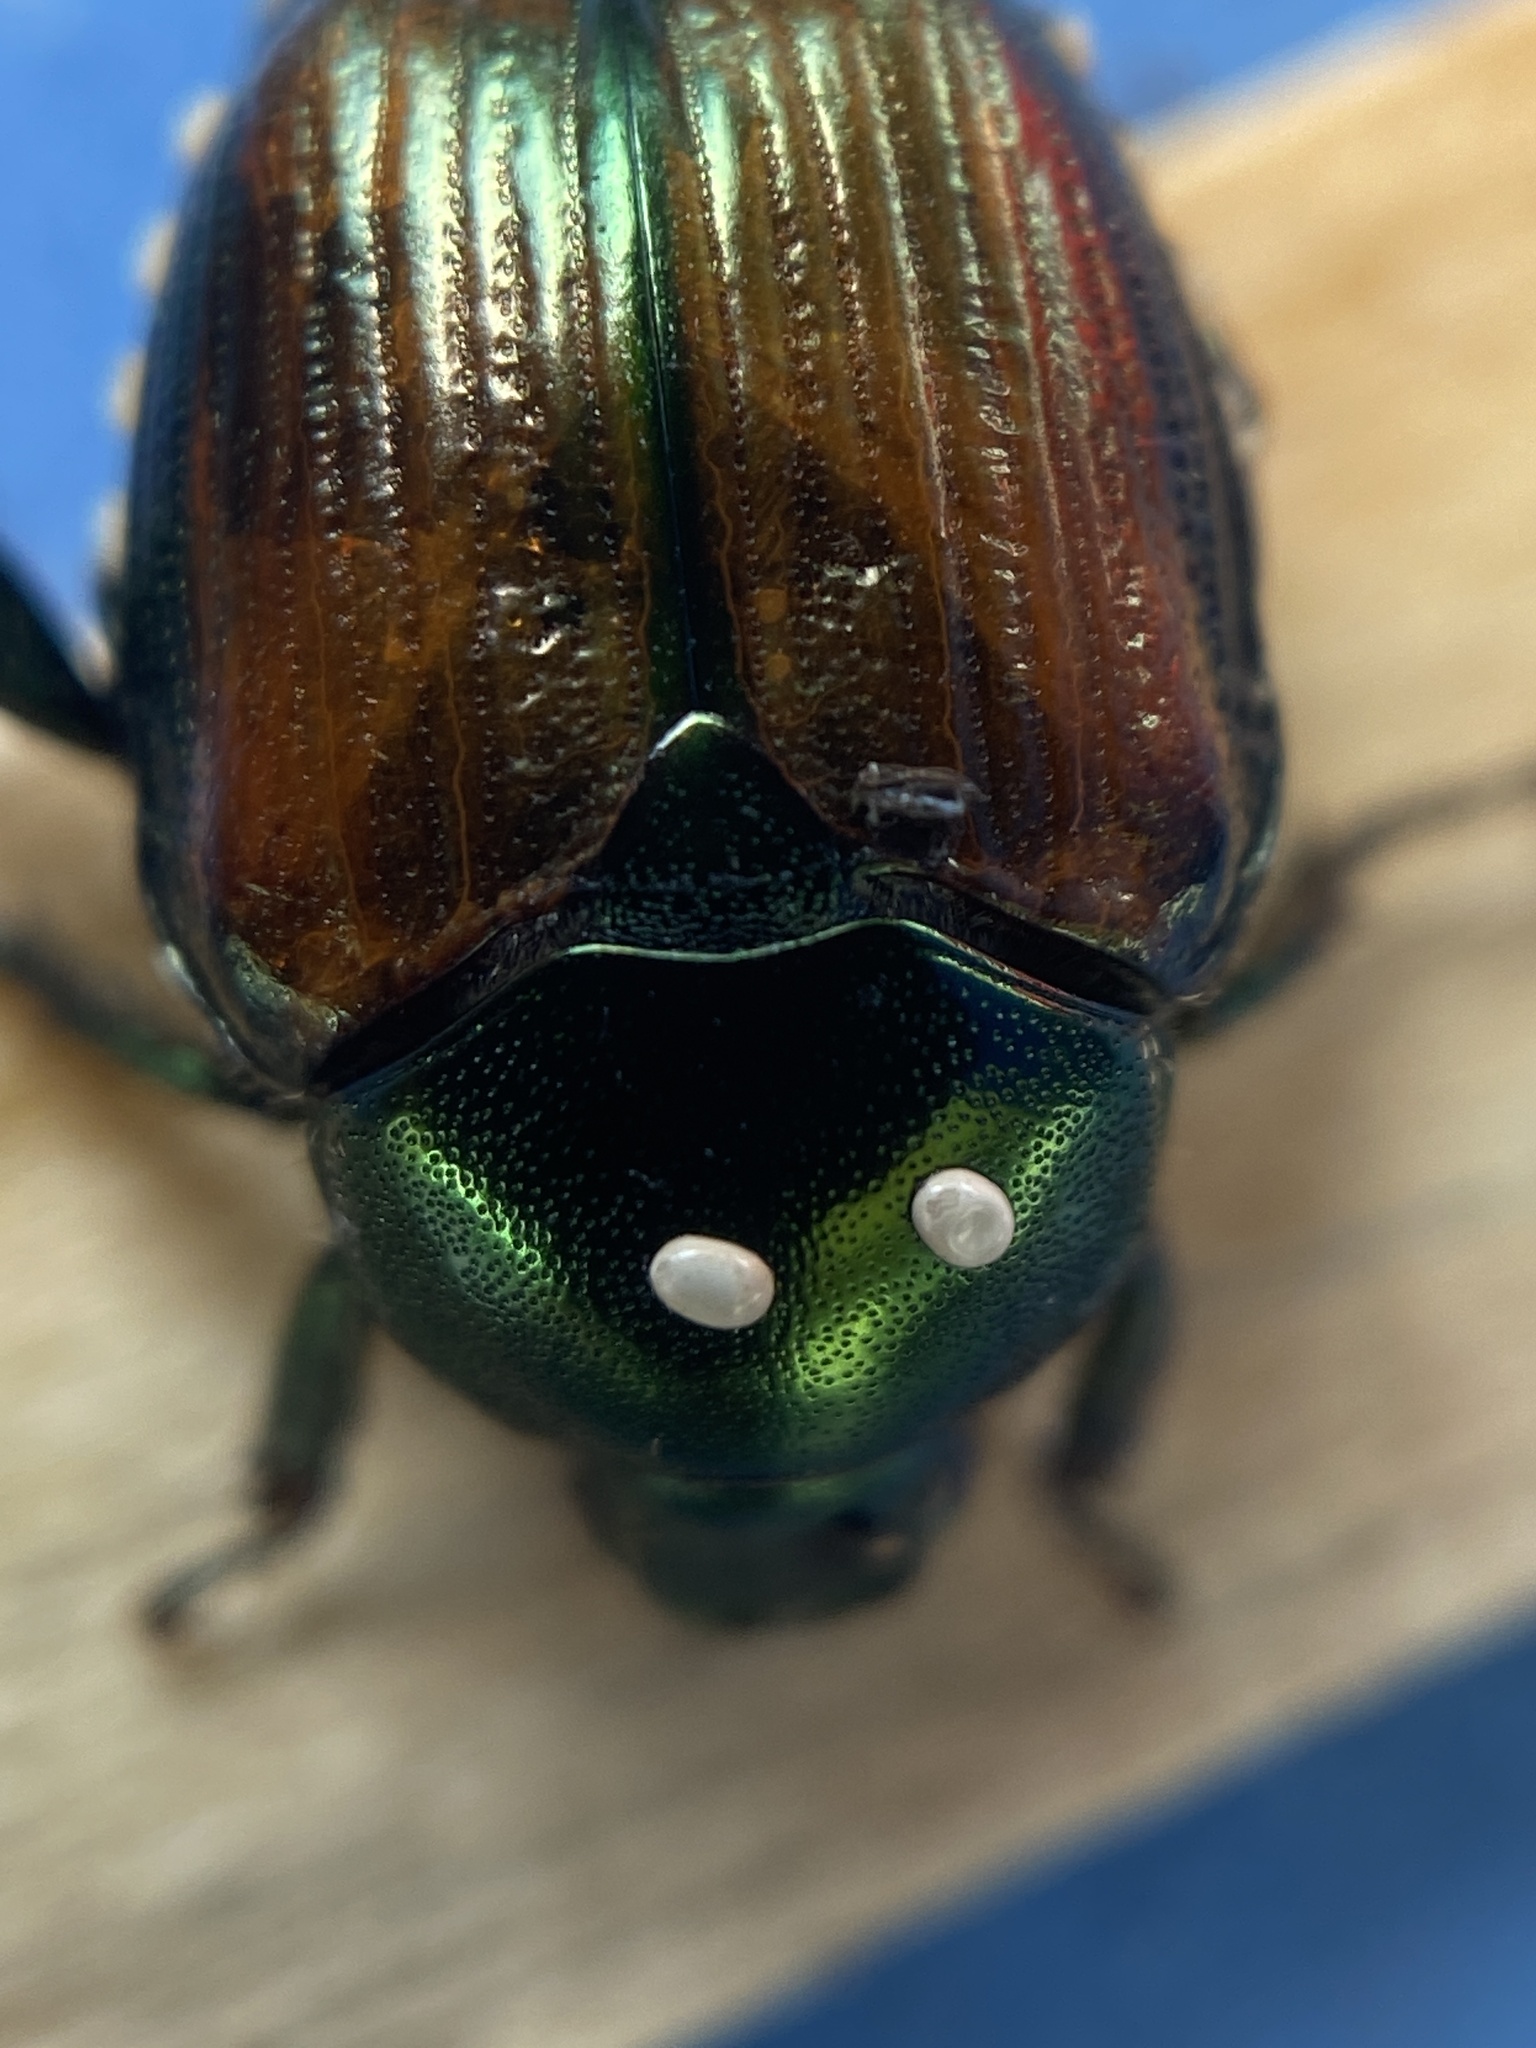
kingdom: Animalia
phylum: Arthropoda
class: Insecta
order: Diptera
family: Tachinidae
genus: Istocheta
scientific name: Istocheta aldrichi
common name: Parasitic wasp
